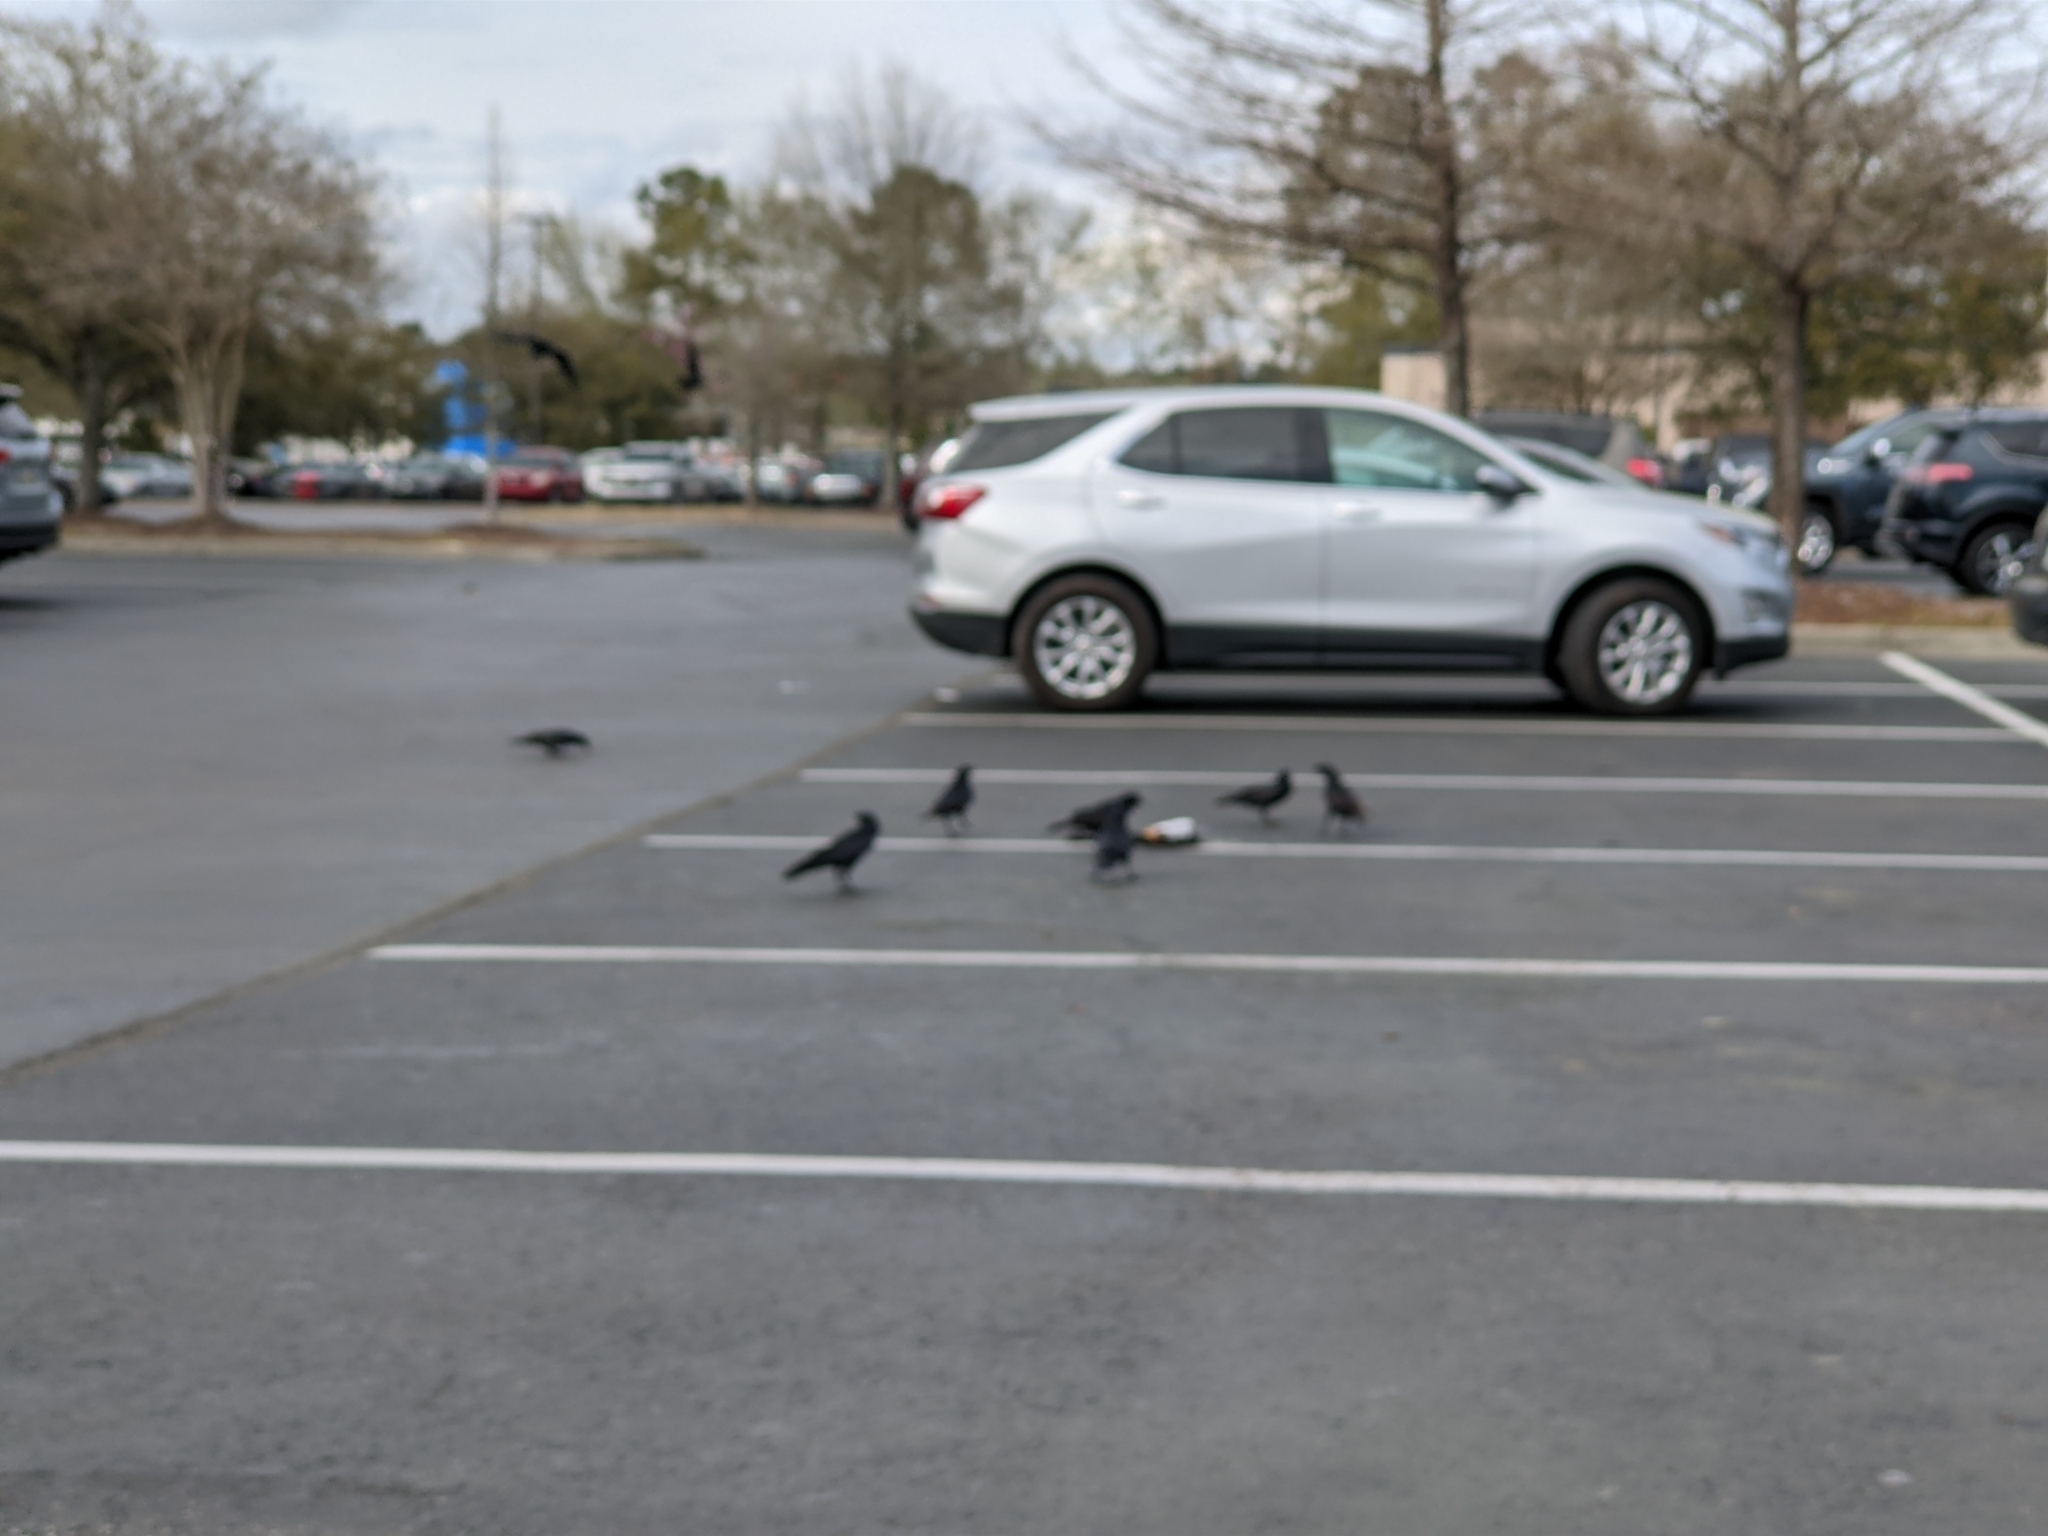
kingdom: Animalia
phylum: Chordata
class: Aves
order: Passeriformes
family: Corvidae
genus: Corvus
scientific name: Corvus ossifragus
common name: Fish crow
